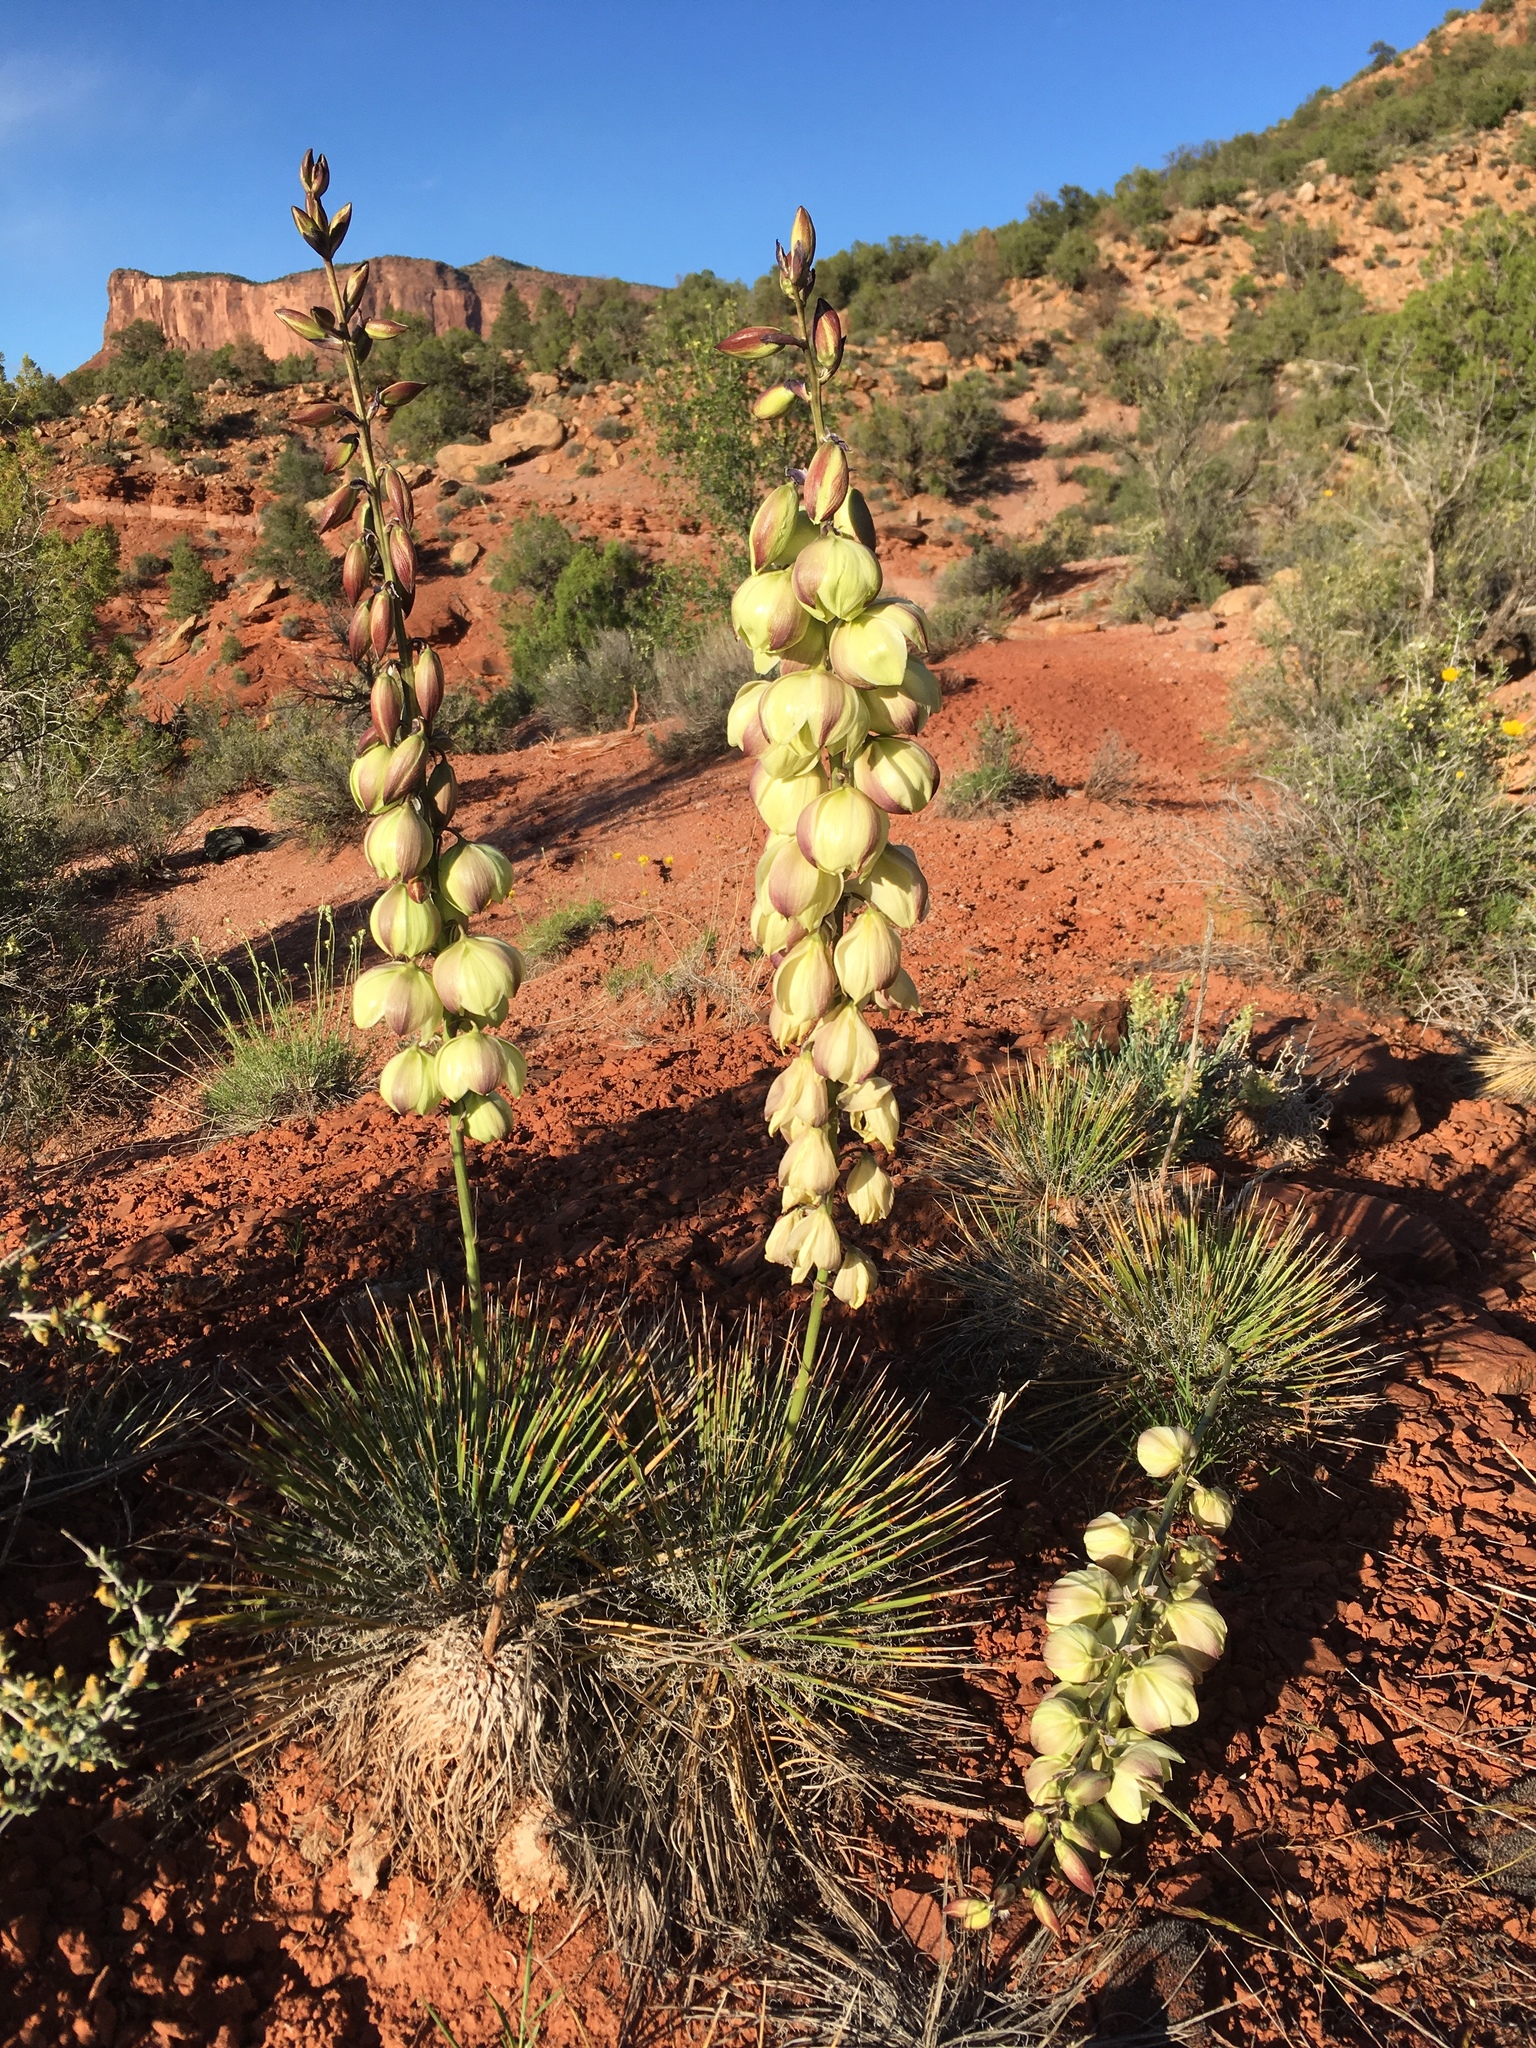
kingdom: Plantae
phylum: Tracheophyta
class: Liliopsida
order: Asparagales
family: Asparagaceae
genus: Yucca
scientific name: Yucca harrimaniae
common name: Harriman's yucca
